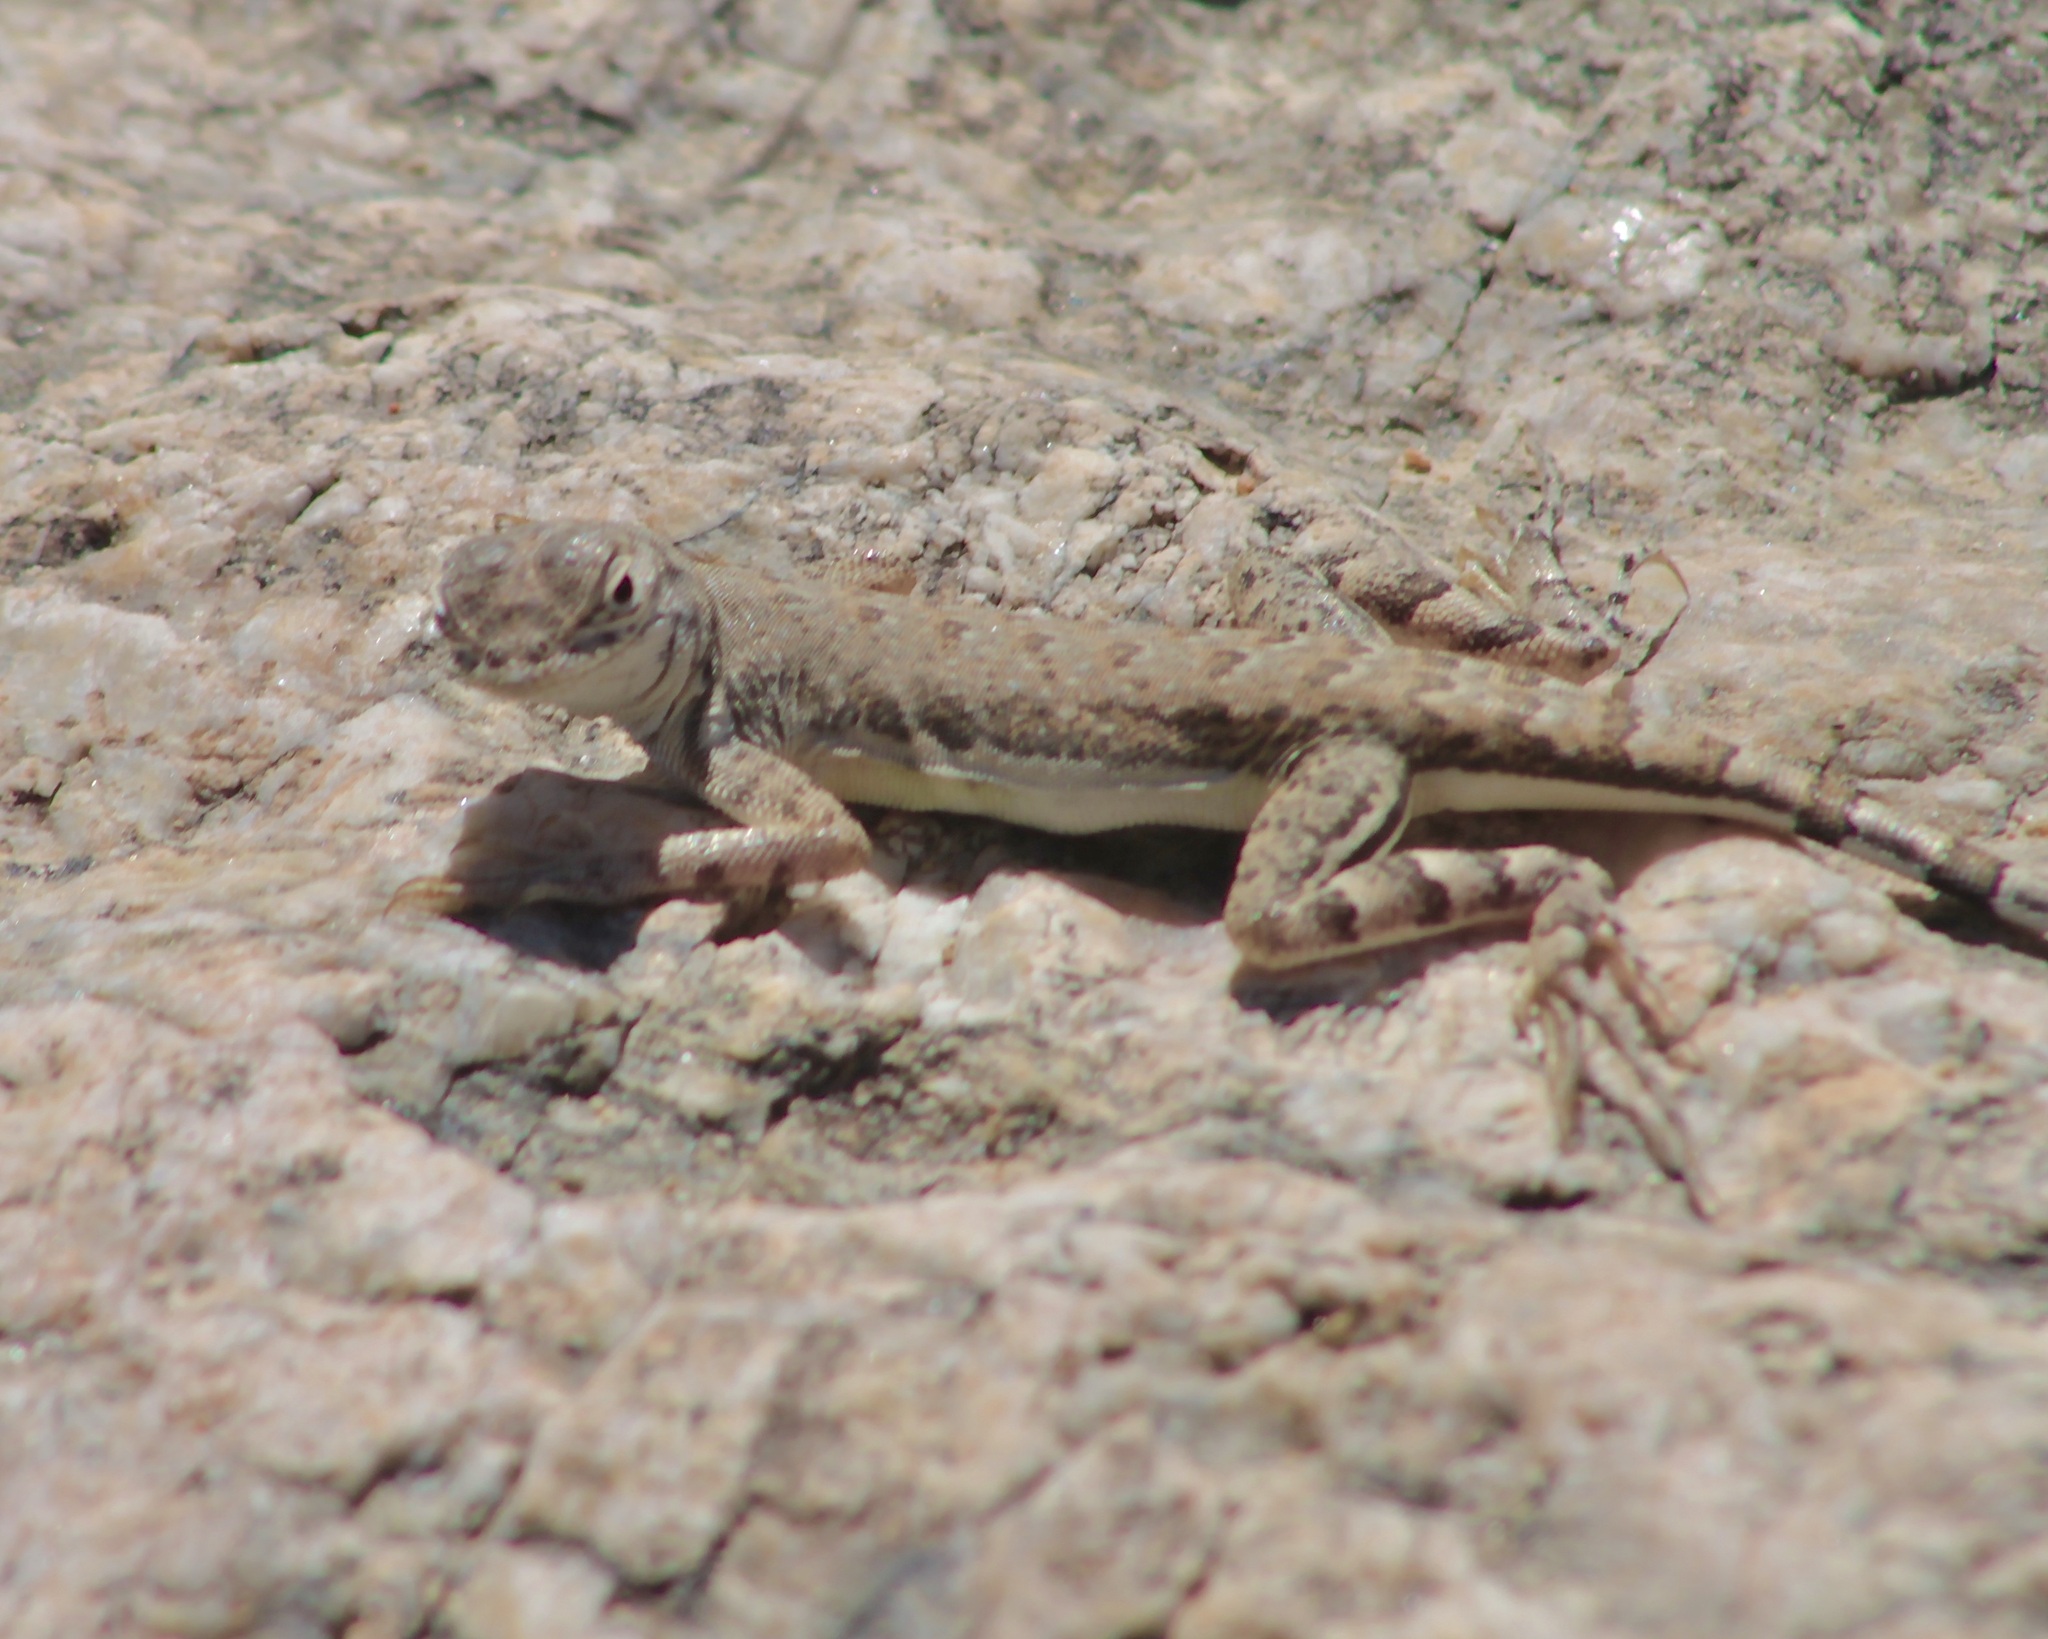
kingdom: Animalia
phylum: Chordata
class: Squamata
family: Phrynosomatidae
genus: Callisaurus
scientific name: Callisaurus draconoides
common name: Zebra-tailed lizard
